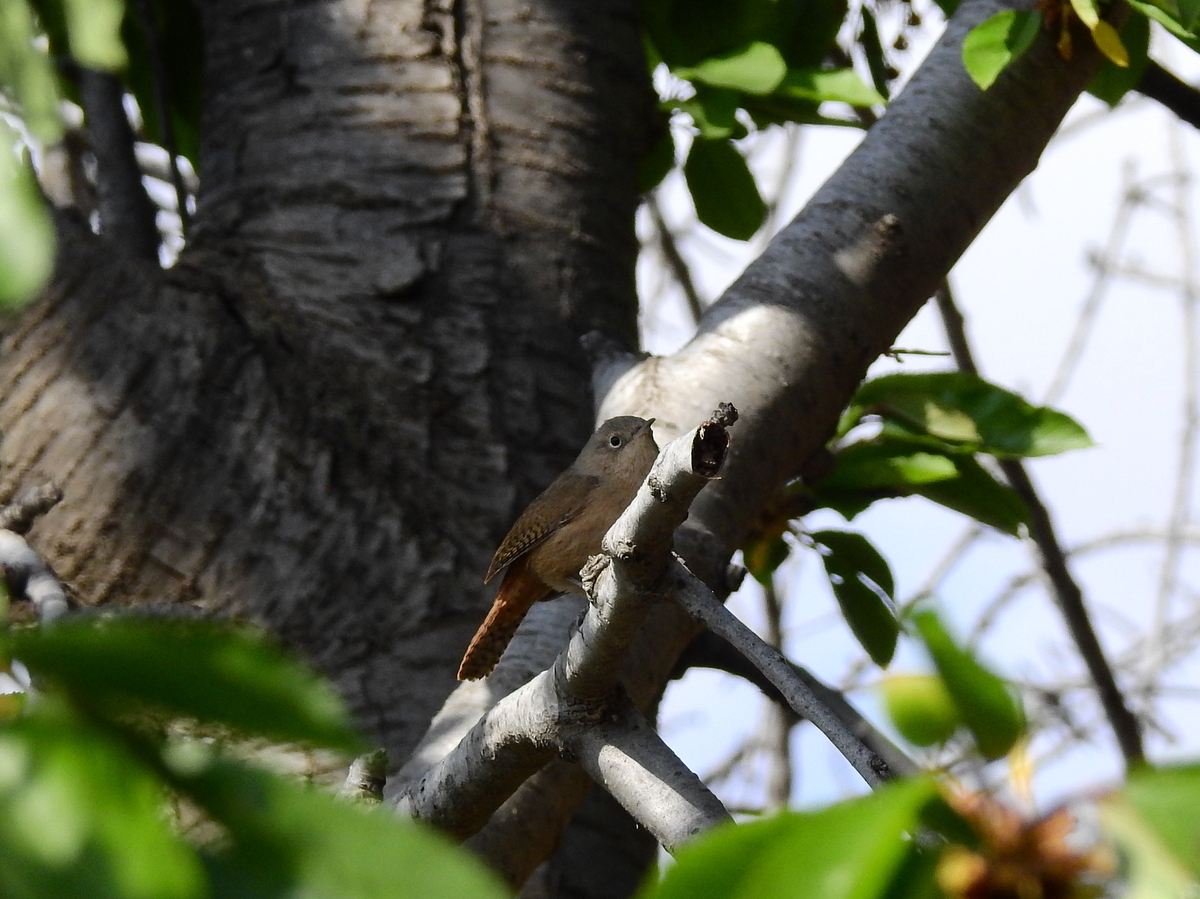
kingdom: Animalia
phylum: Chordata
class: Aves
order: Passeriformes
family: Troglodytidae
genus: Troglodytes
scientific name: Troglodytes aedon
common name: House wren
